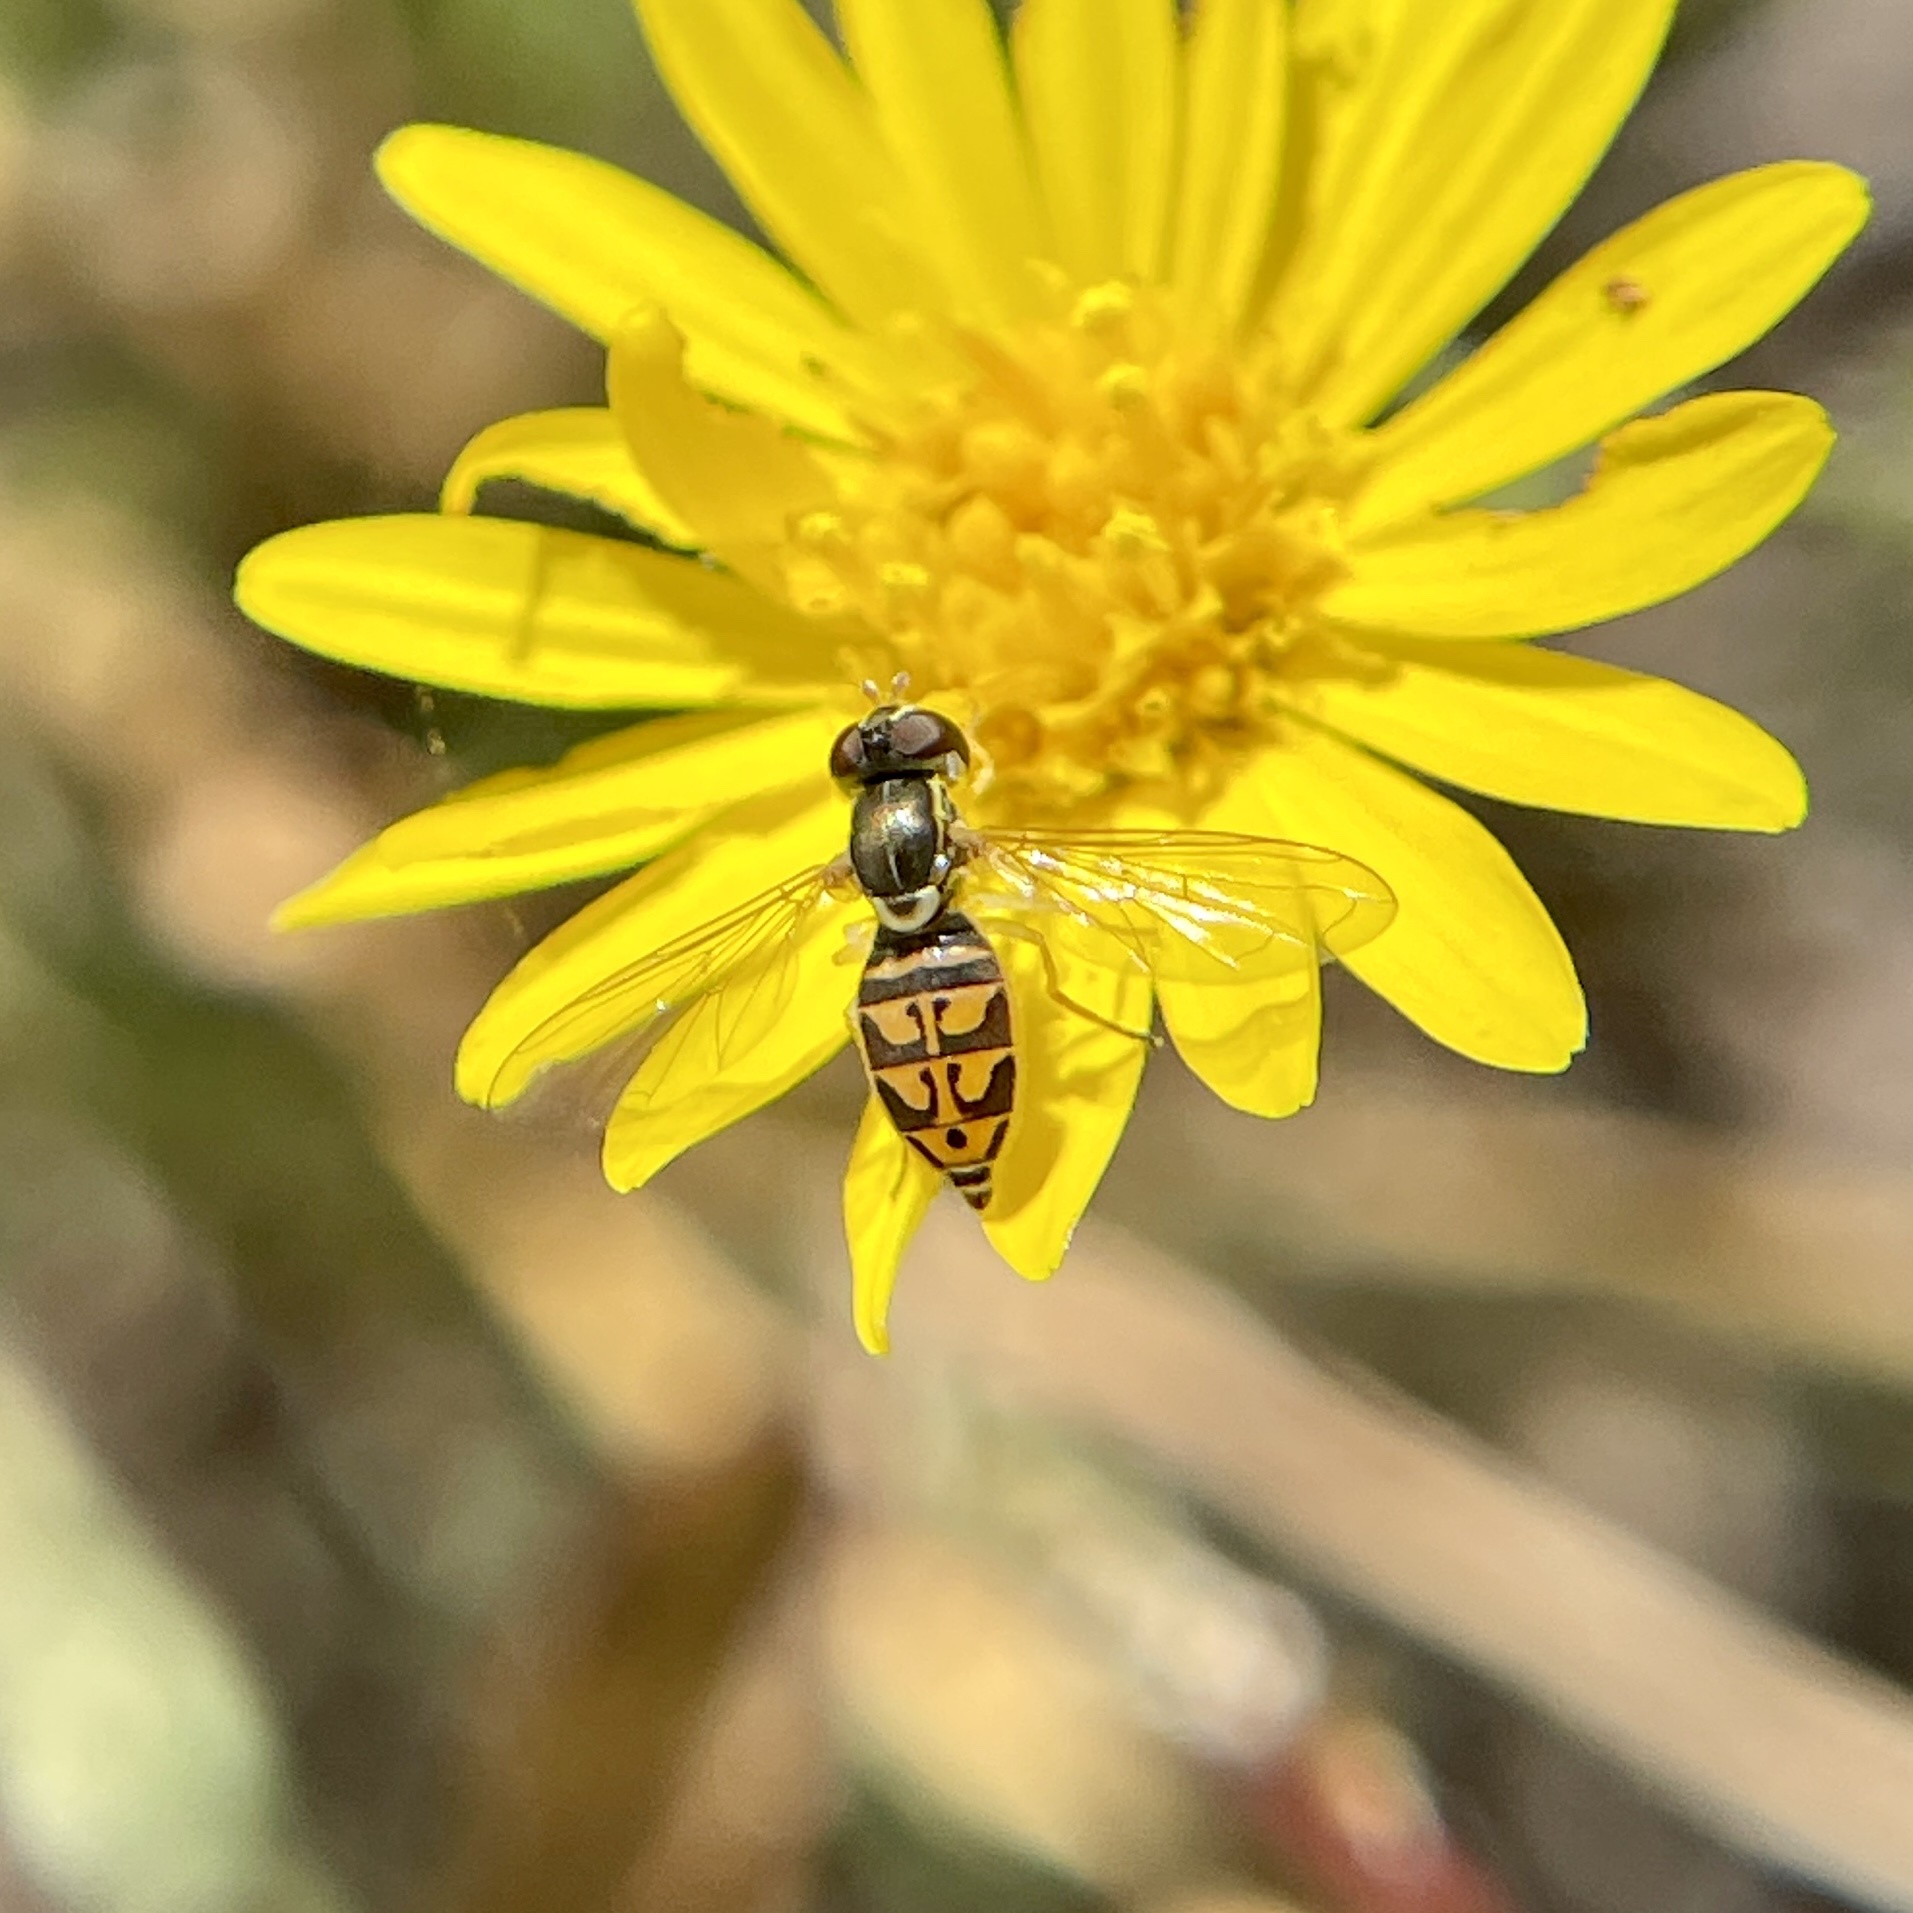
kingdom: Animalia
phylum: Arthropoda
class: Insecta
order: Diptera
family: Syrphidae
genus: Toxomerus
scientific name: Toxomerus marginatus
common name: Syrphid fly
